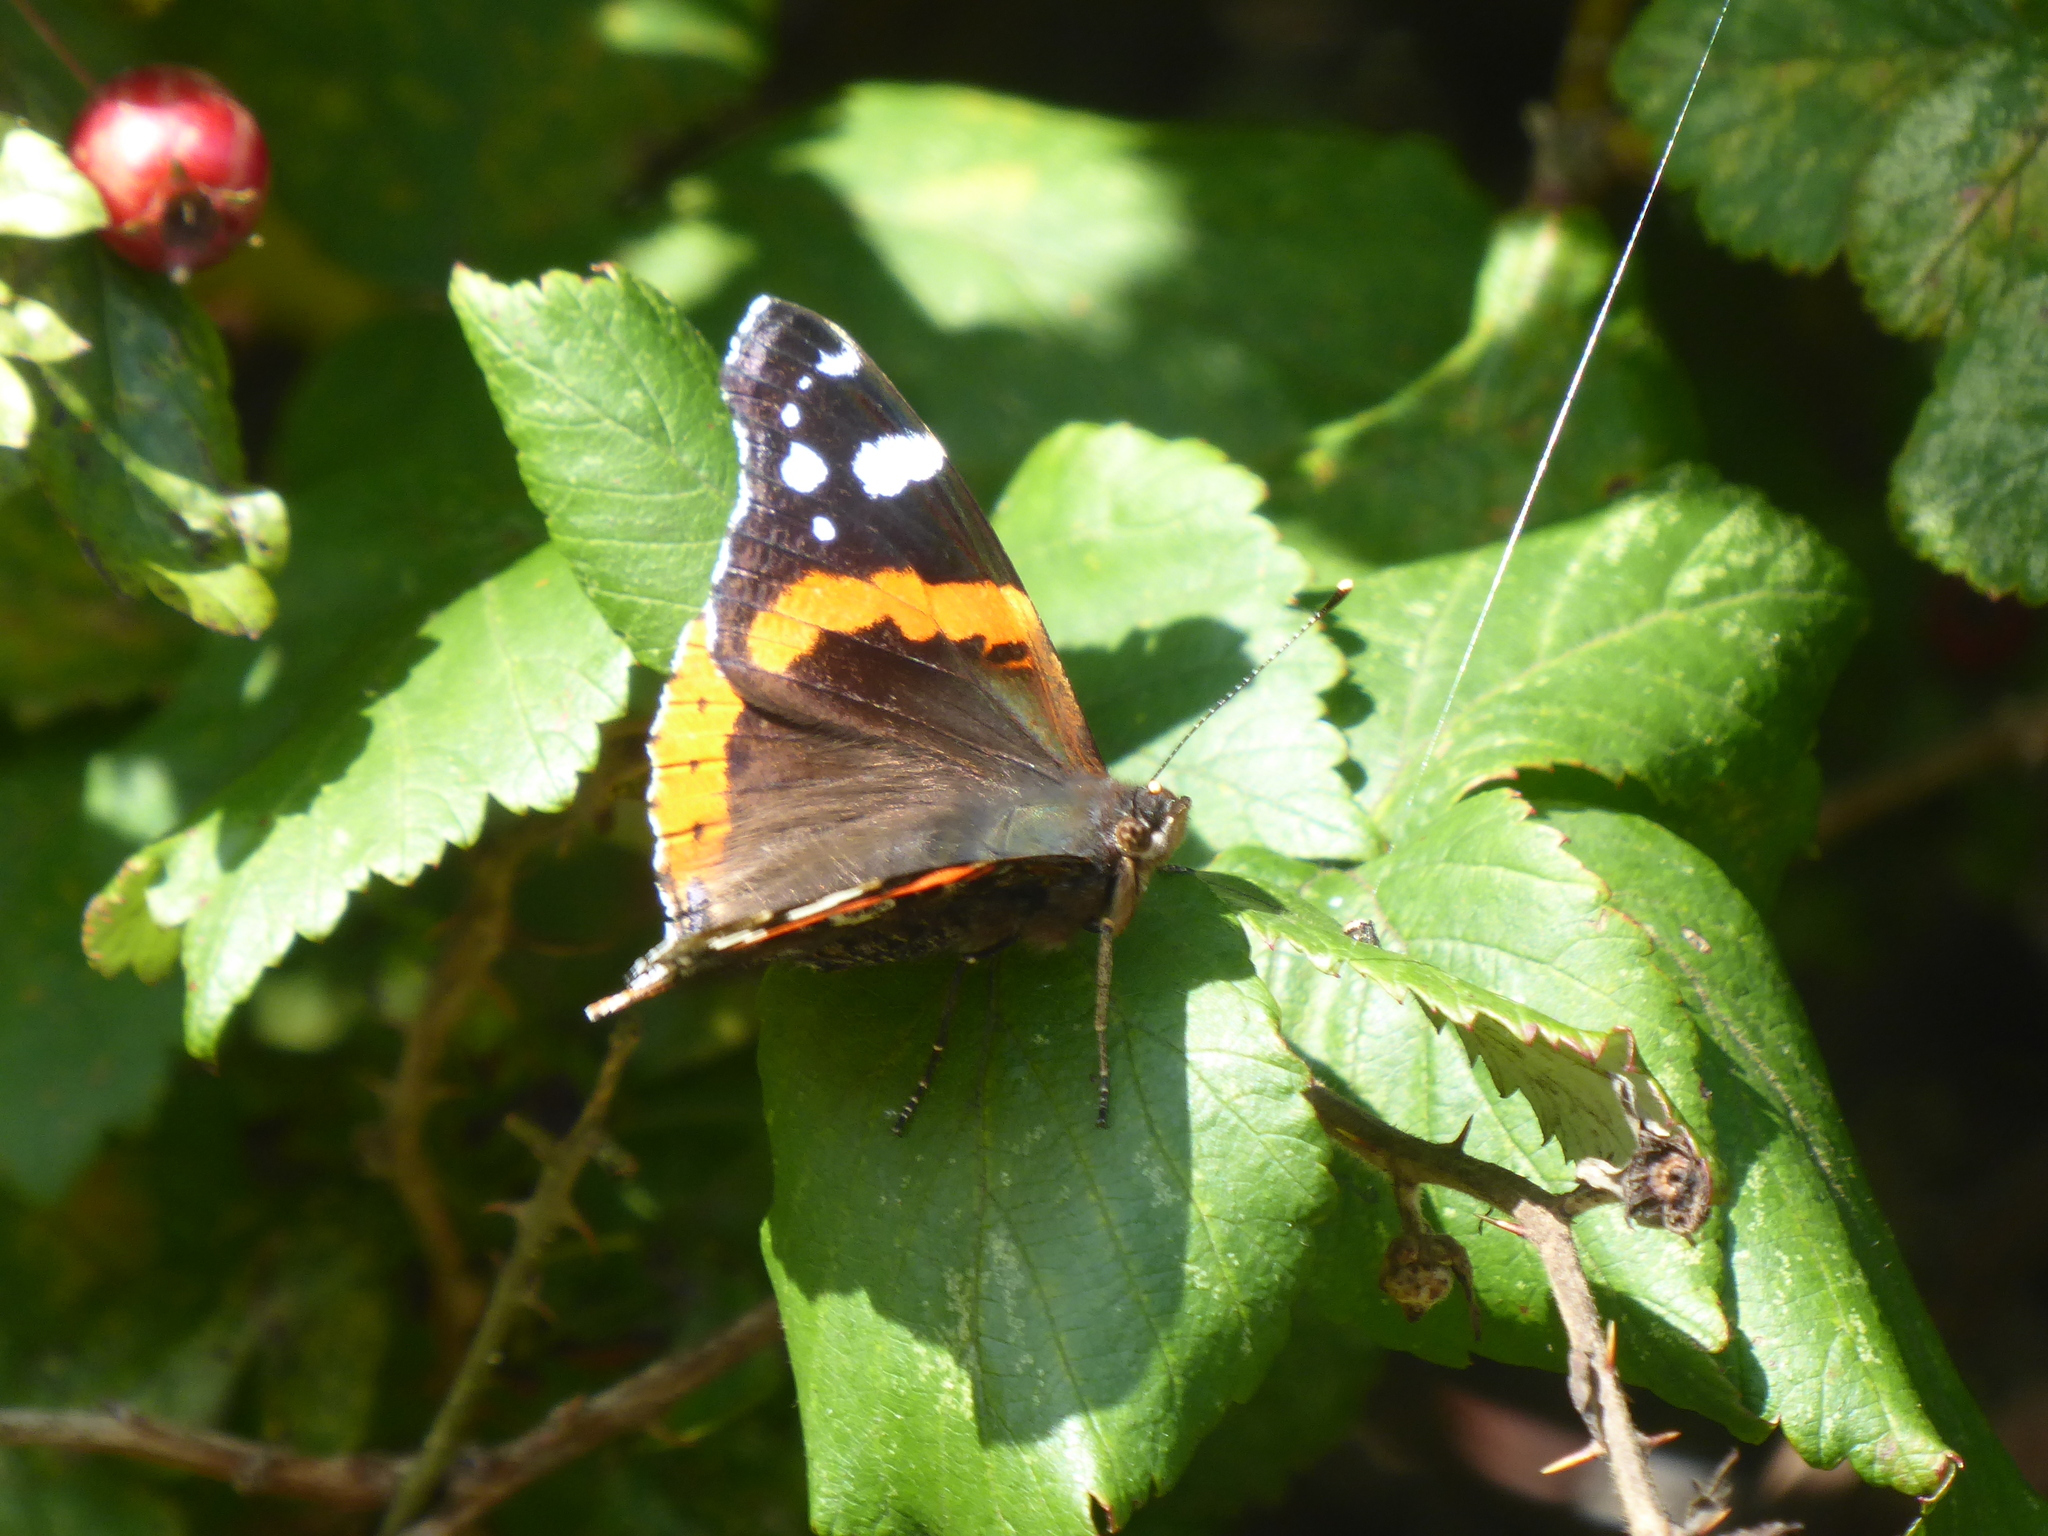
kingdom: Animalia
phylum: Arthropoda
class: Insecta
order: Lepidoptera
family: Nymphalidae
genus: Vanessa
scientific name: Vanessa atalanta
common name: Red admiral
